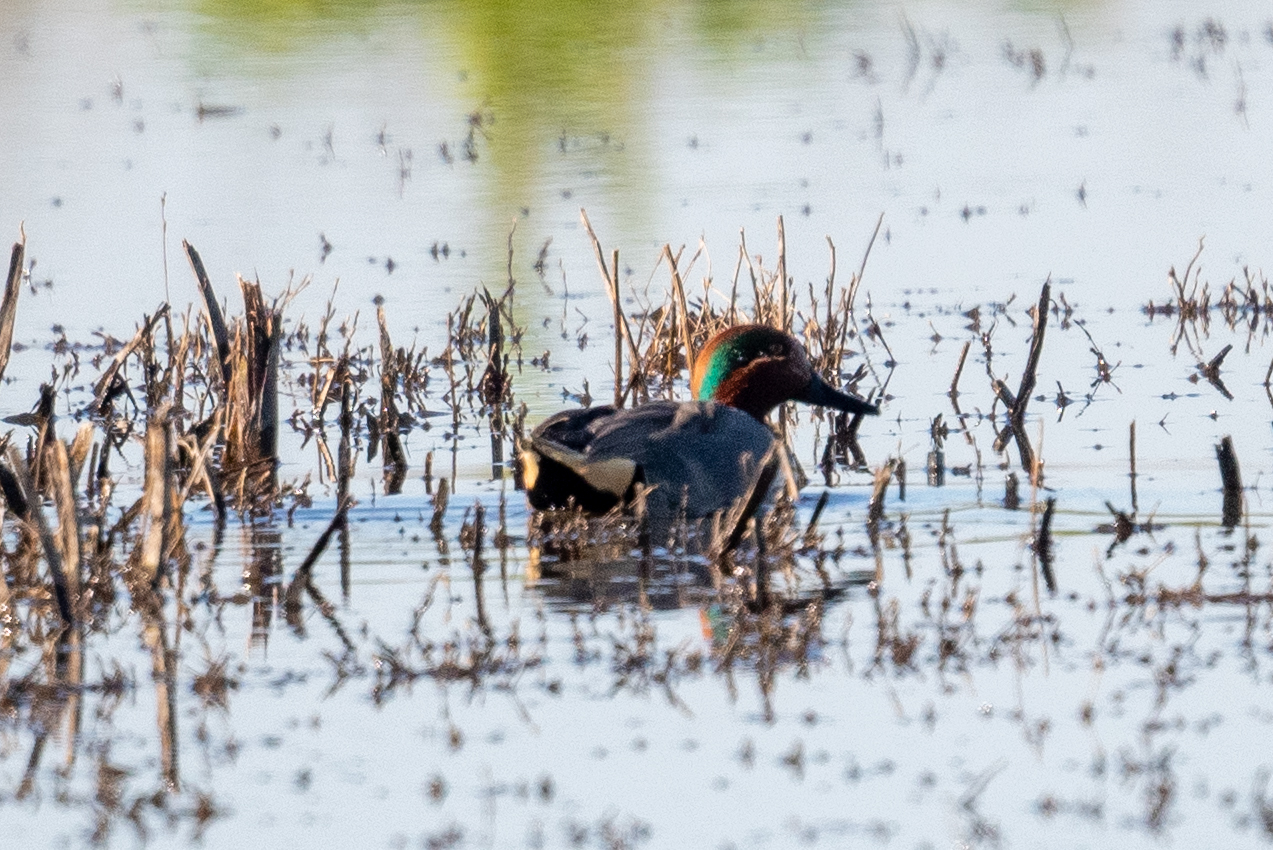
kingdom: Animalia
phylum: Chordata
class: Aves
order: Anseriformes
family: Anatidae
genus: Anas
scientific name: Anas crecca
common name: Eurasian teal
